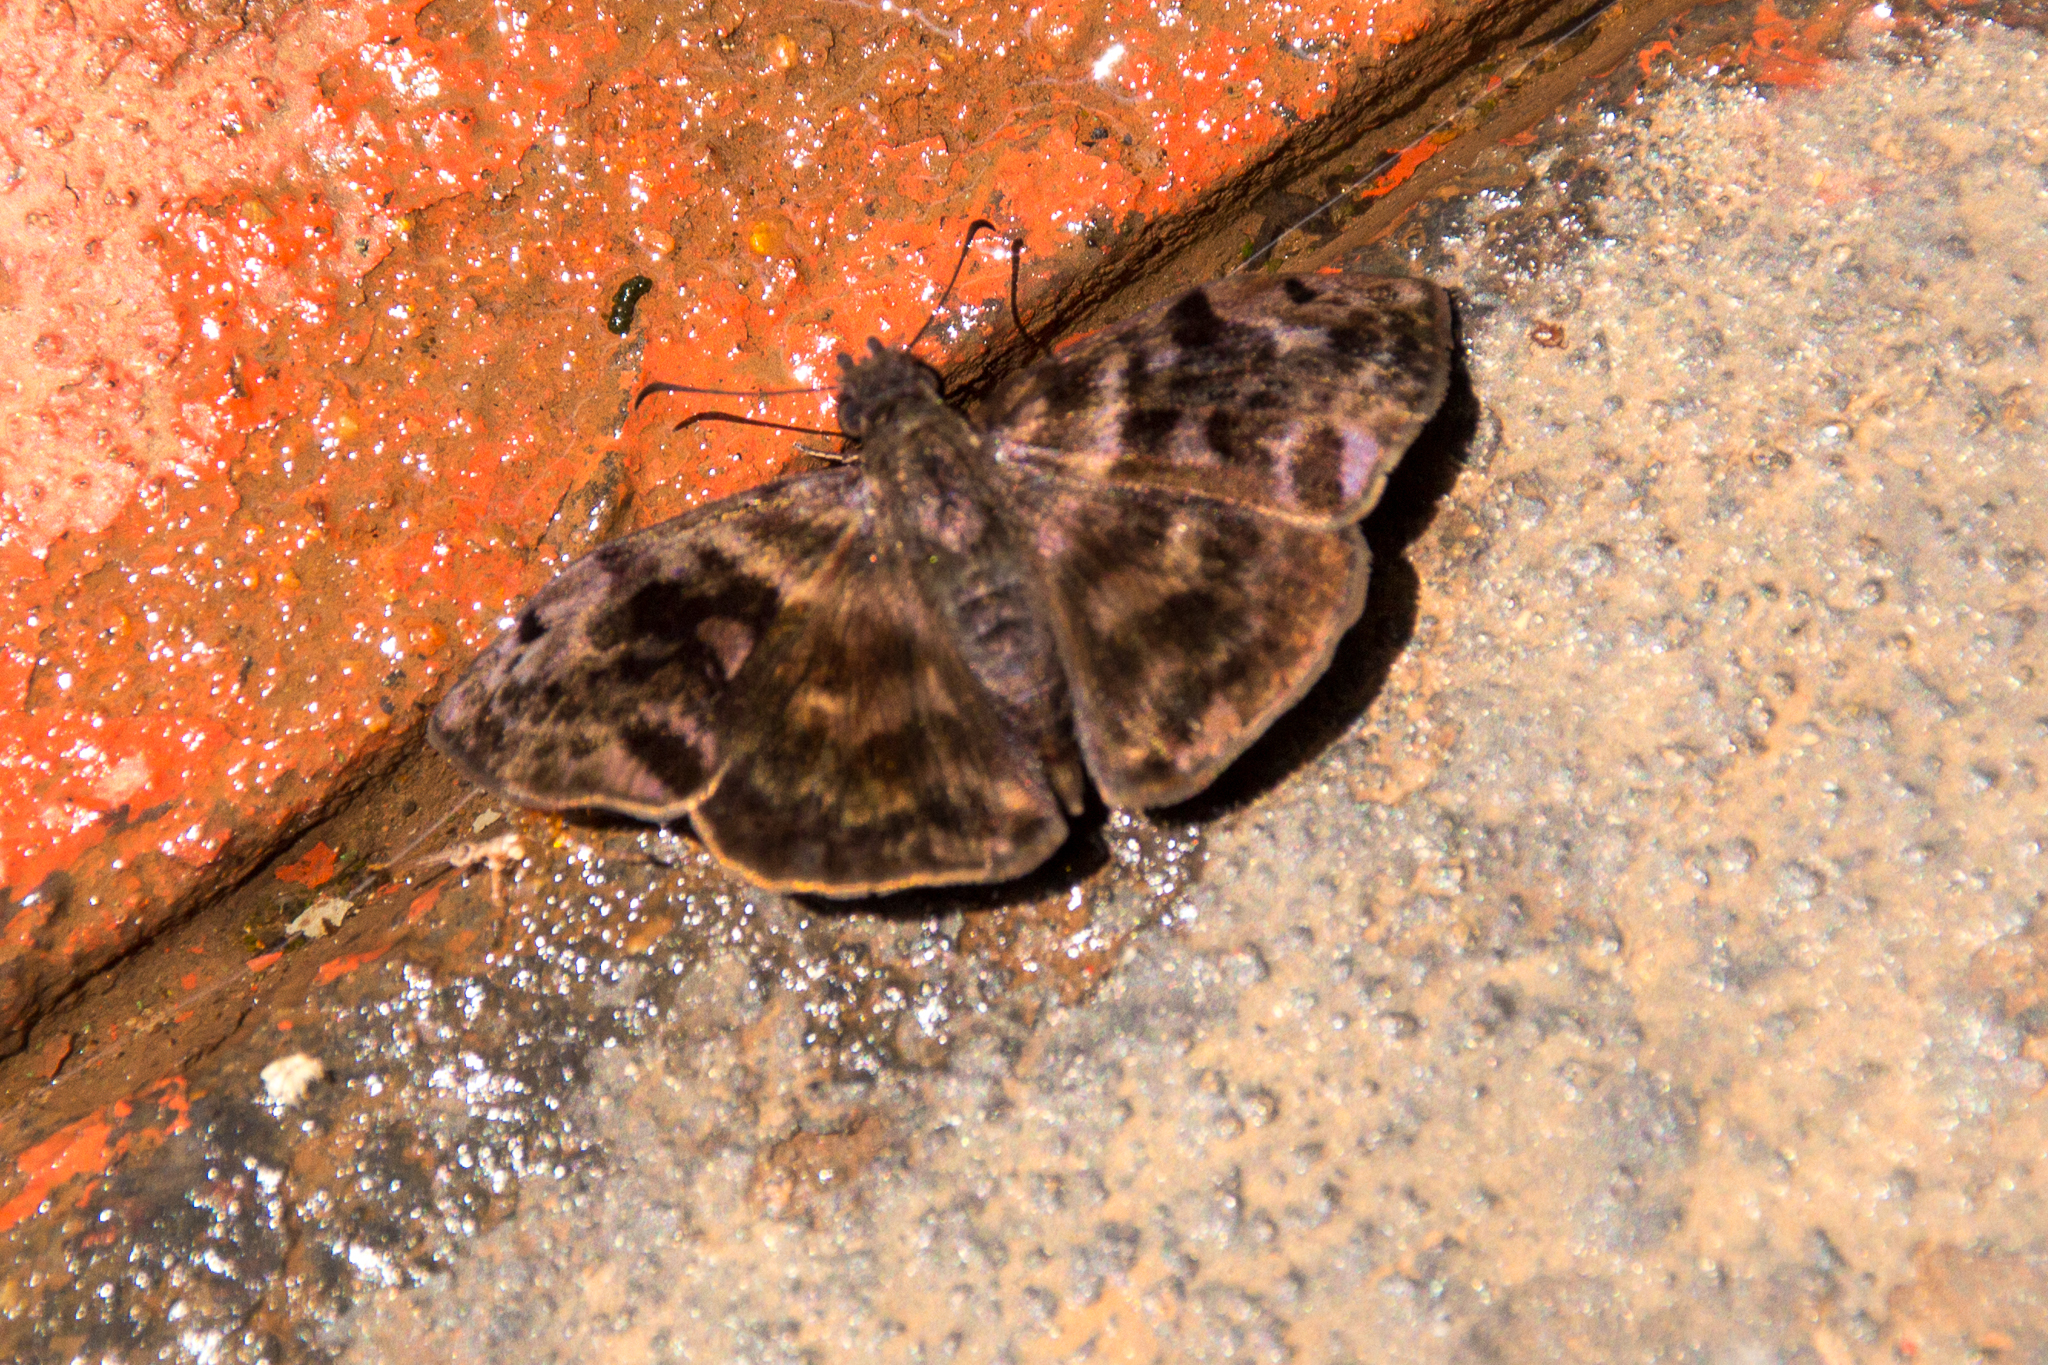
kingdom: Animalia
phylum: Arthropoda
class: Insecta
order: Lepidoptera
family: Hesperiidae
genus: Ebrietas
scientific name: Ebrietas anacreon
